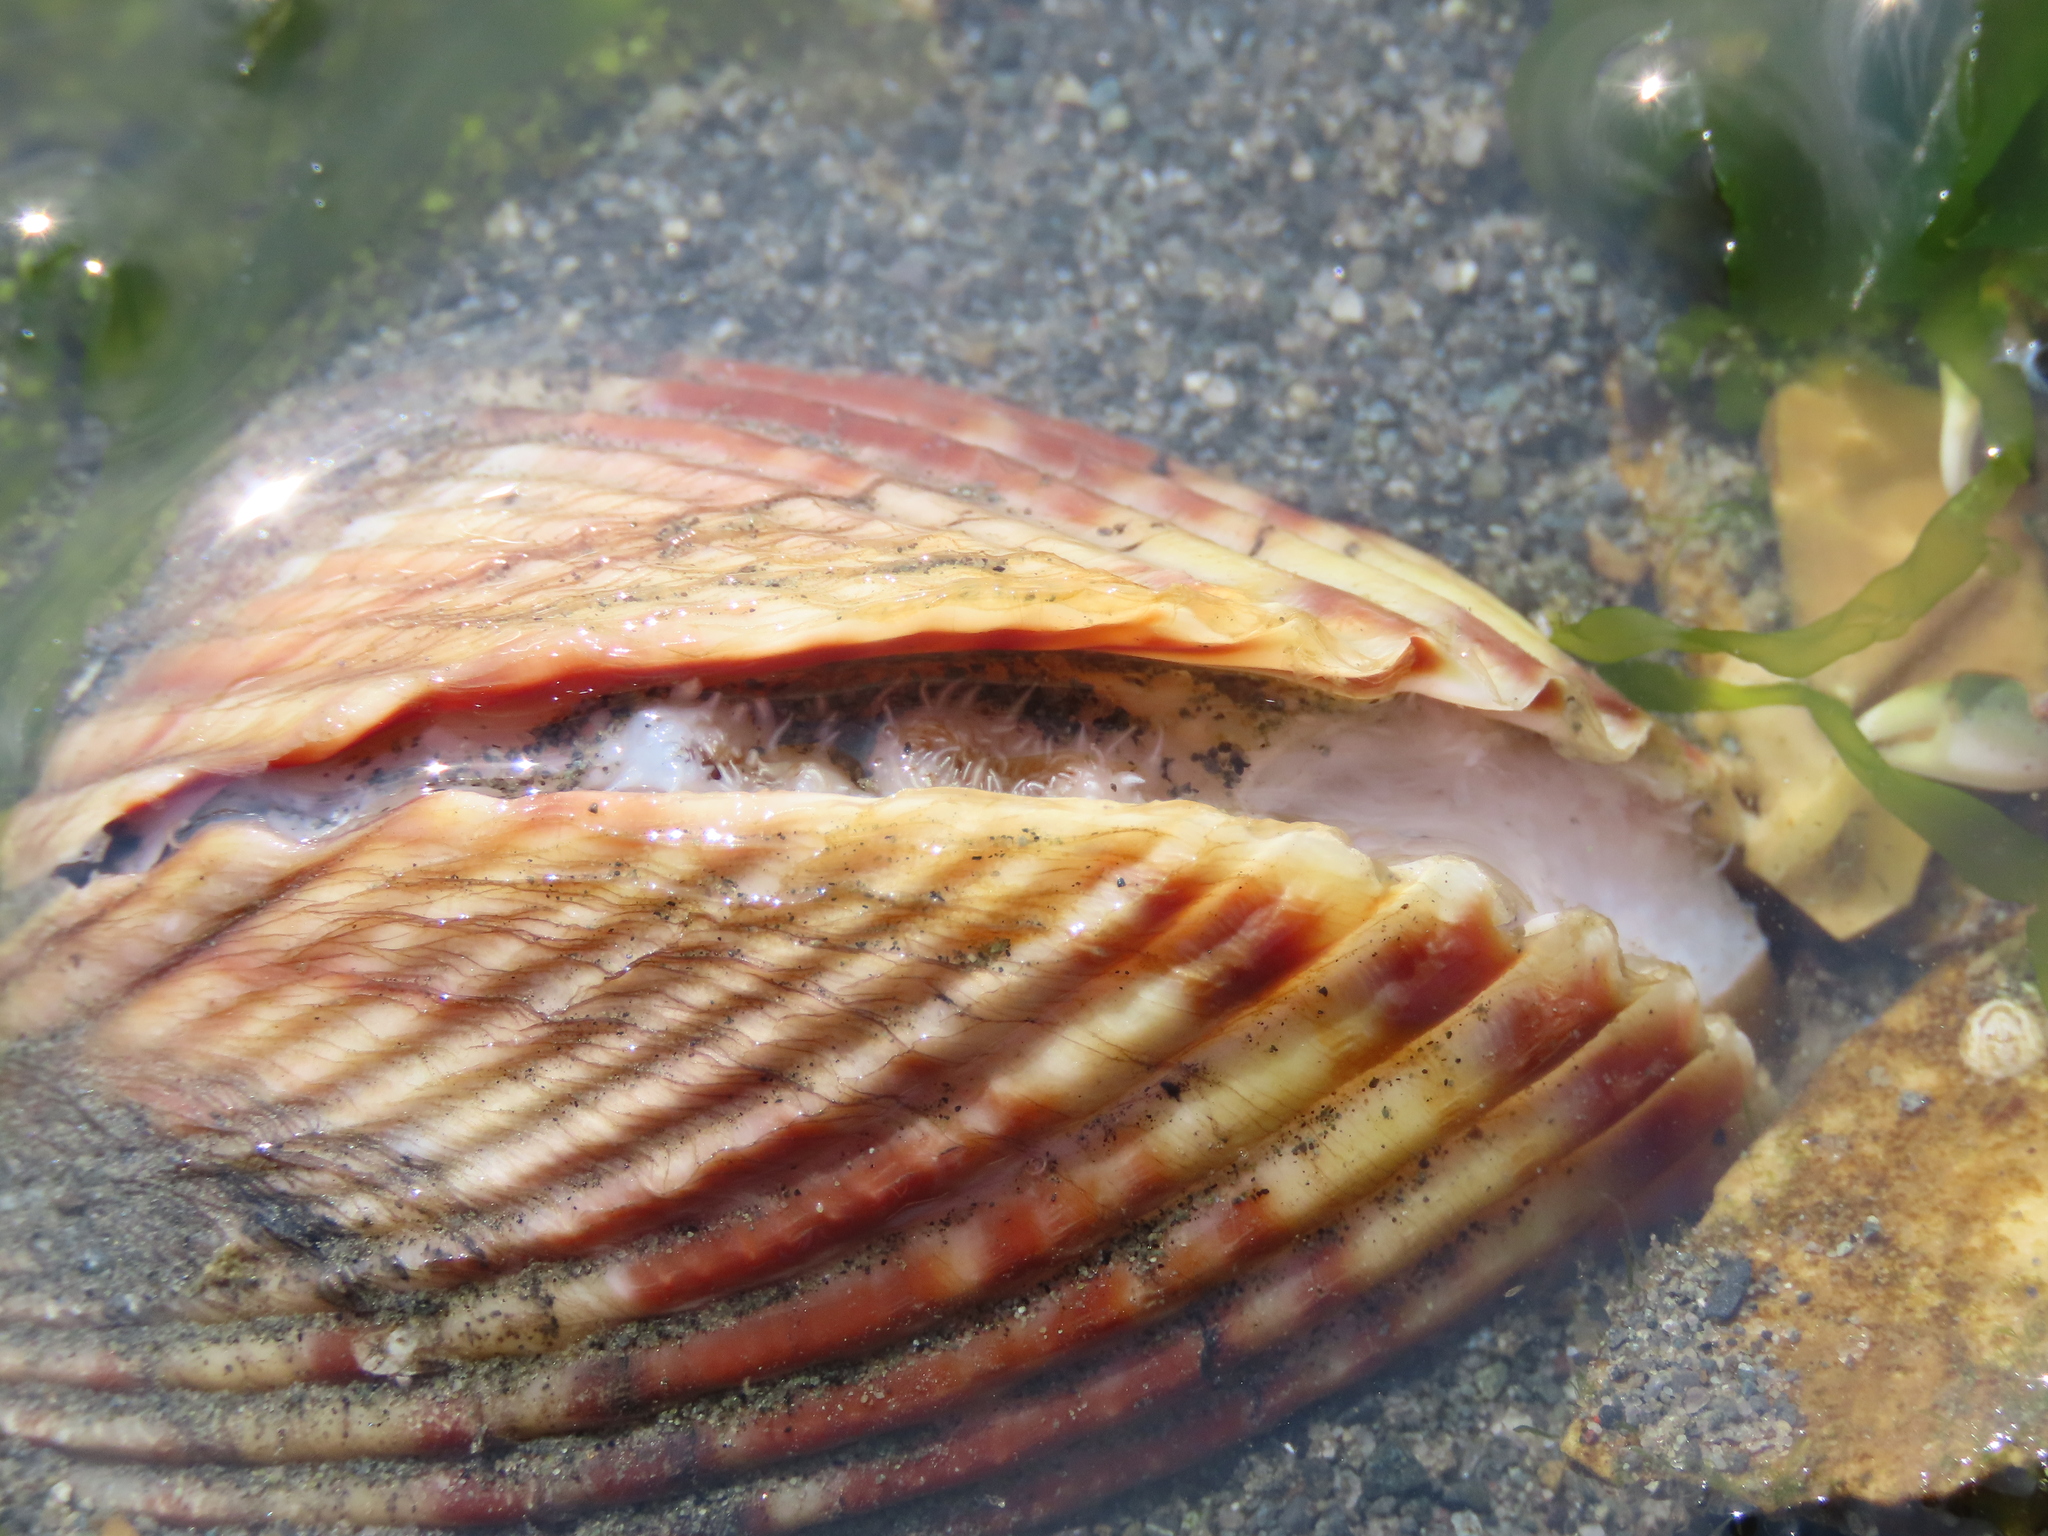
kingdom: Animalia
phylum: Mollusca
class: Bivalvia
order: Cardiida
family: Cardiidae
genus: Clinocardium
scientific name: Clinocardium nuttallii
